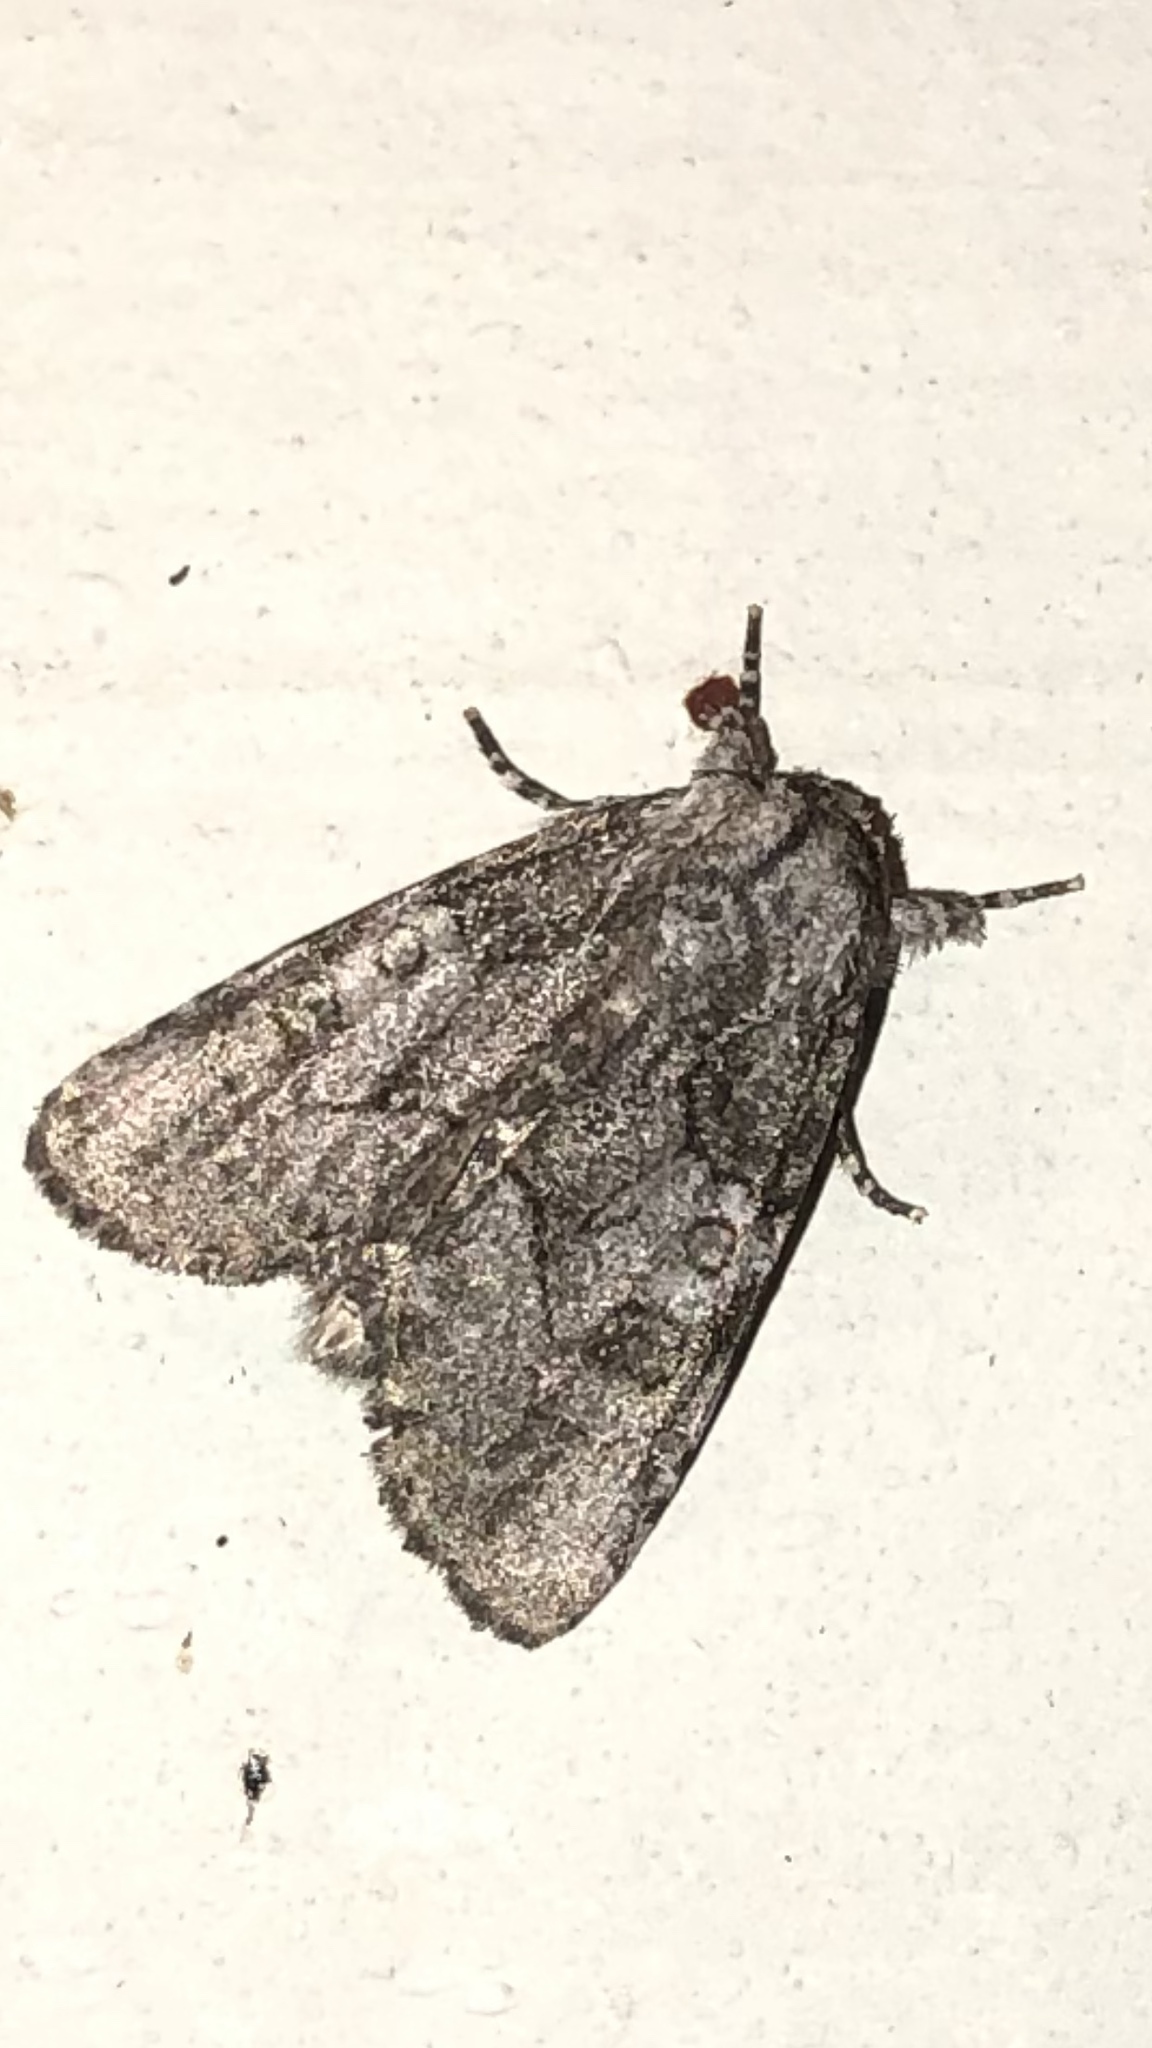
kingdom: Animalia
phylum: Arthropoda
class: Insecta
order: Lepidoptera
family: Noctuidae
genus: Raphia
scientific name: Raphia frater
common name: Brother
